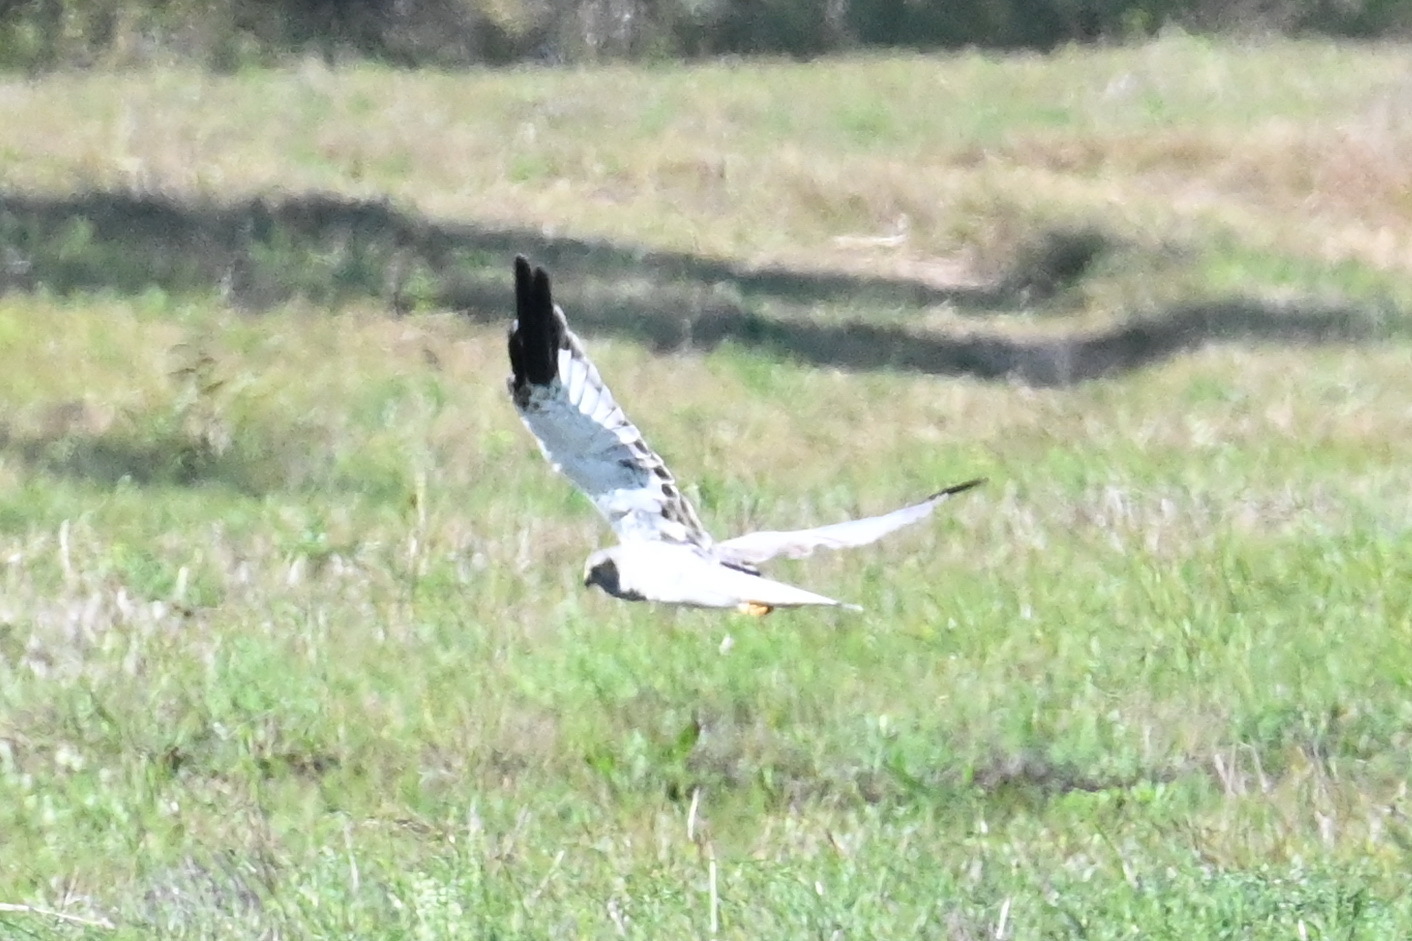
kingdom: Animalia
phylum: Chordata
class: Aves
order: Accipitriformes
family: Accipitridae
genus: Circus
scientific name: Circus macrourus
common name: Pallid harrier
